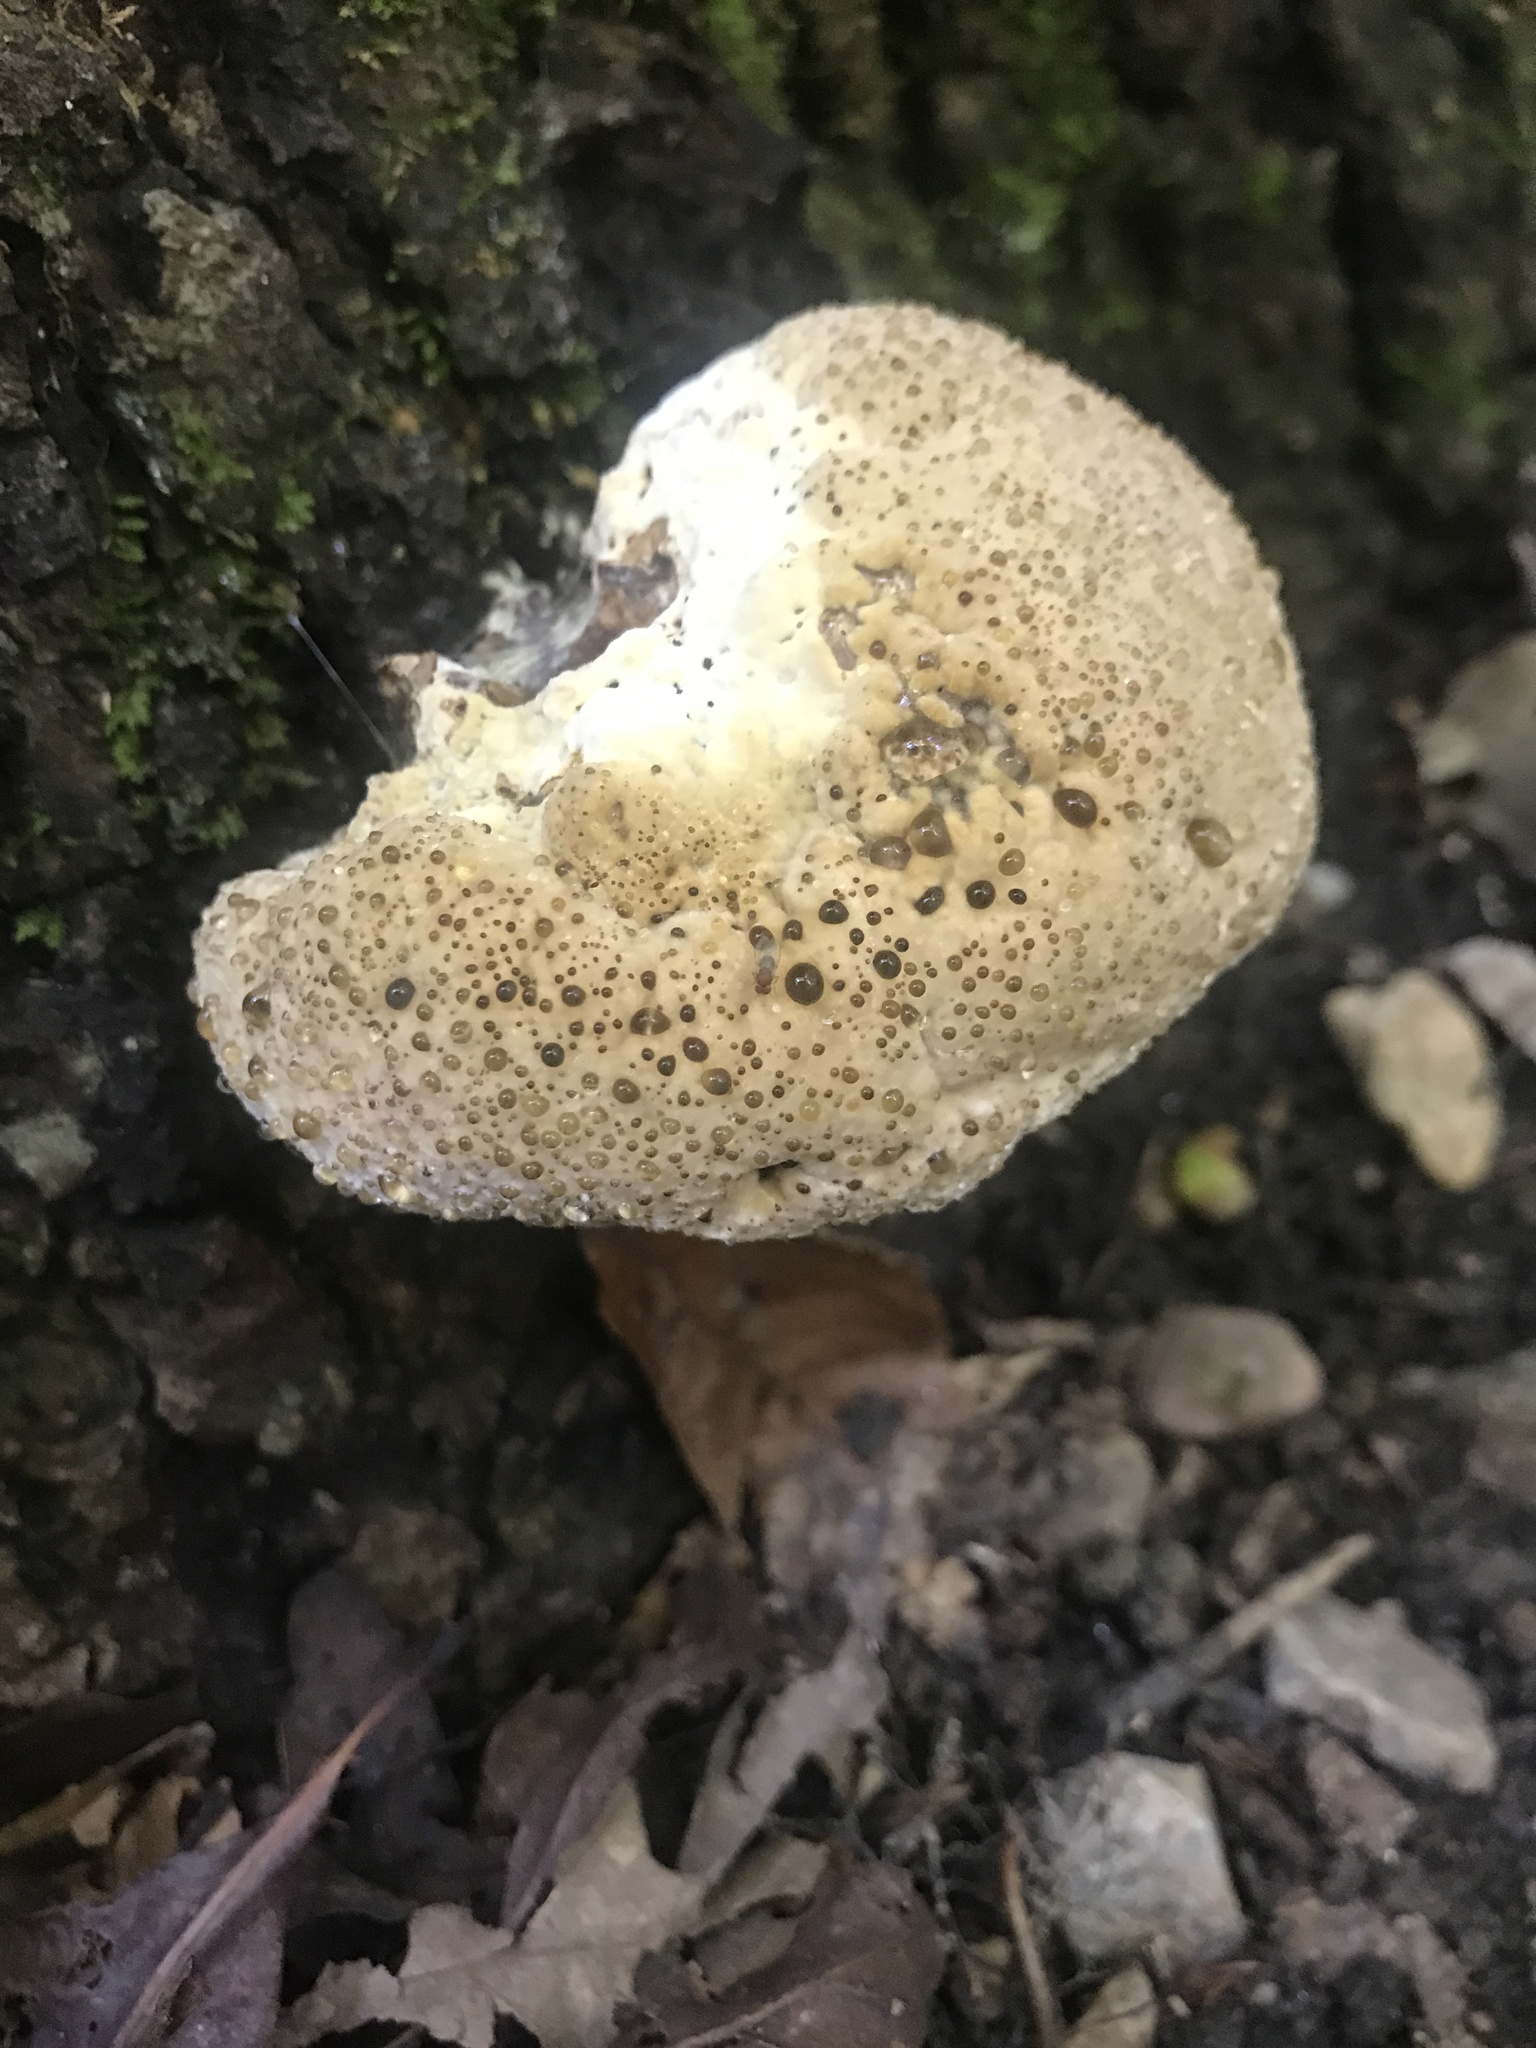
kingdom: Fungi
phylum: Basidiomycota
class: Agaricomycetes
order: Hymenochaetales
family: Hymenochaetaceae
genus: Pseudoinonotus
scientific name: Pseudoinonotus dryadeus
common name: Oak bracket
